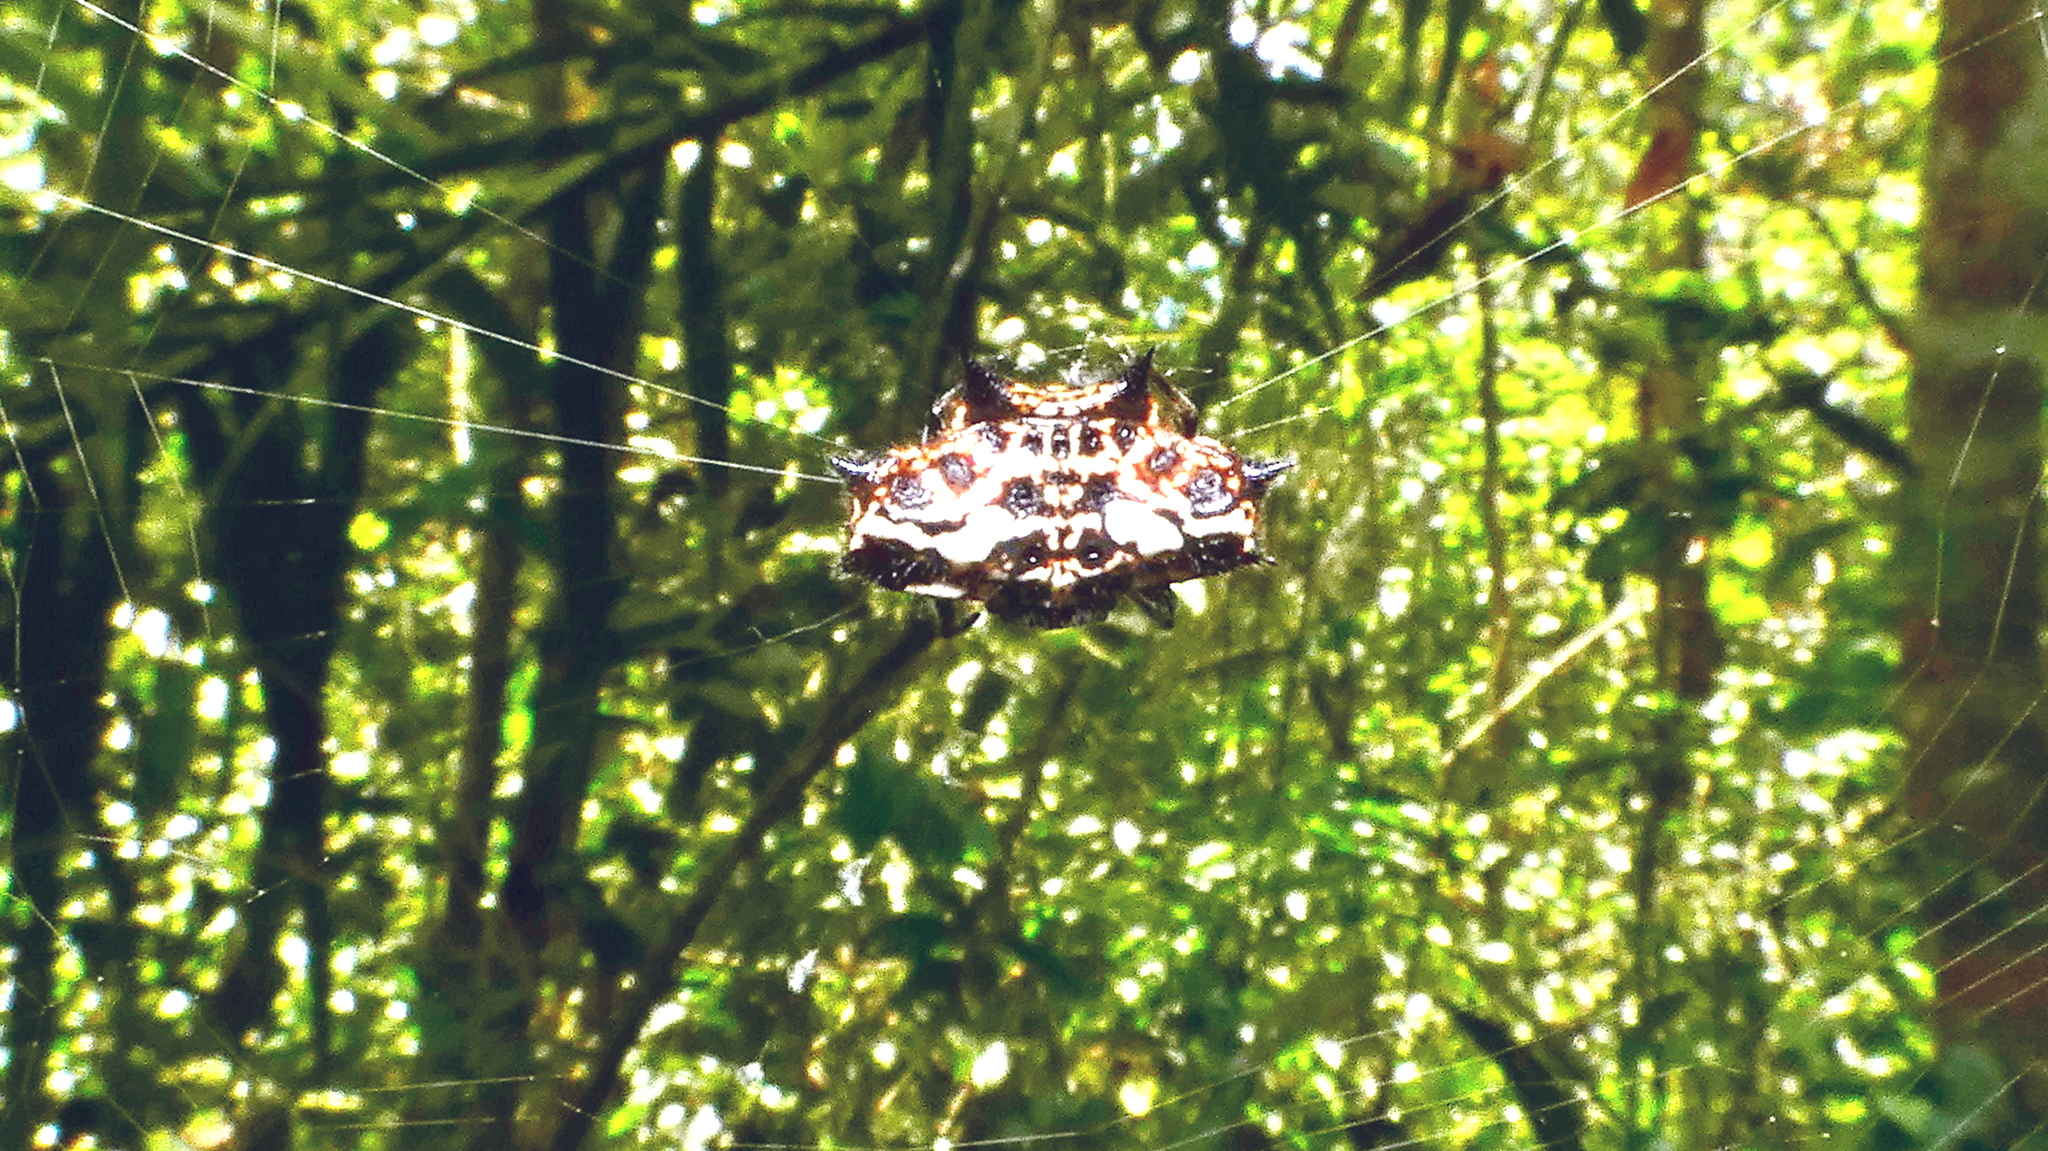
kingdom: Animalia
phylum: Arthropoda
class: Arachnida
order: Araneae
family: Araneidae
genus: Gasteracantha
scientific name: Gasteracantha cancriformis
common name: Orb weavers
